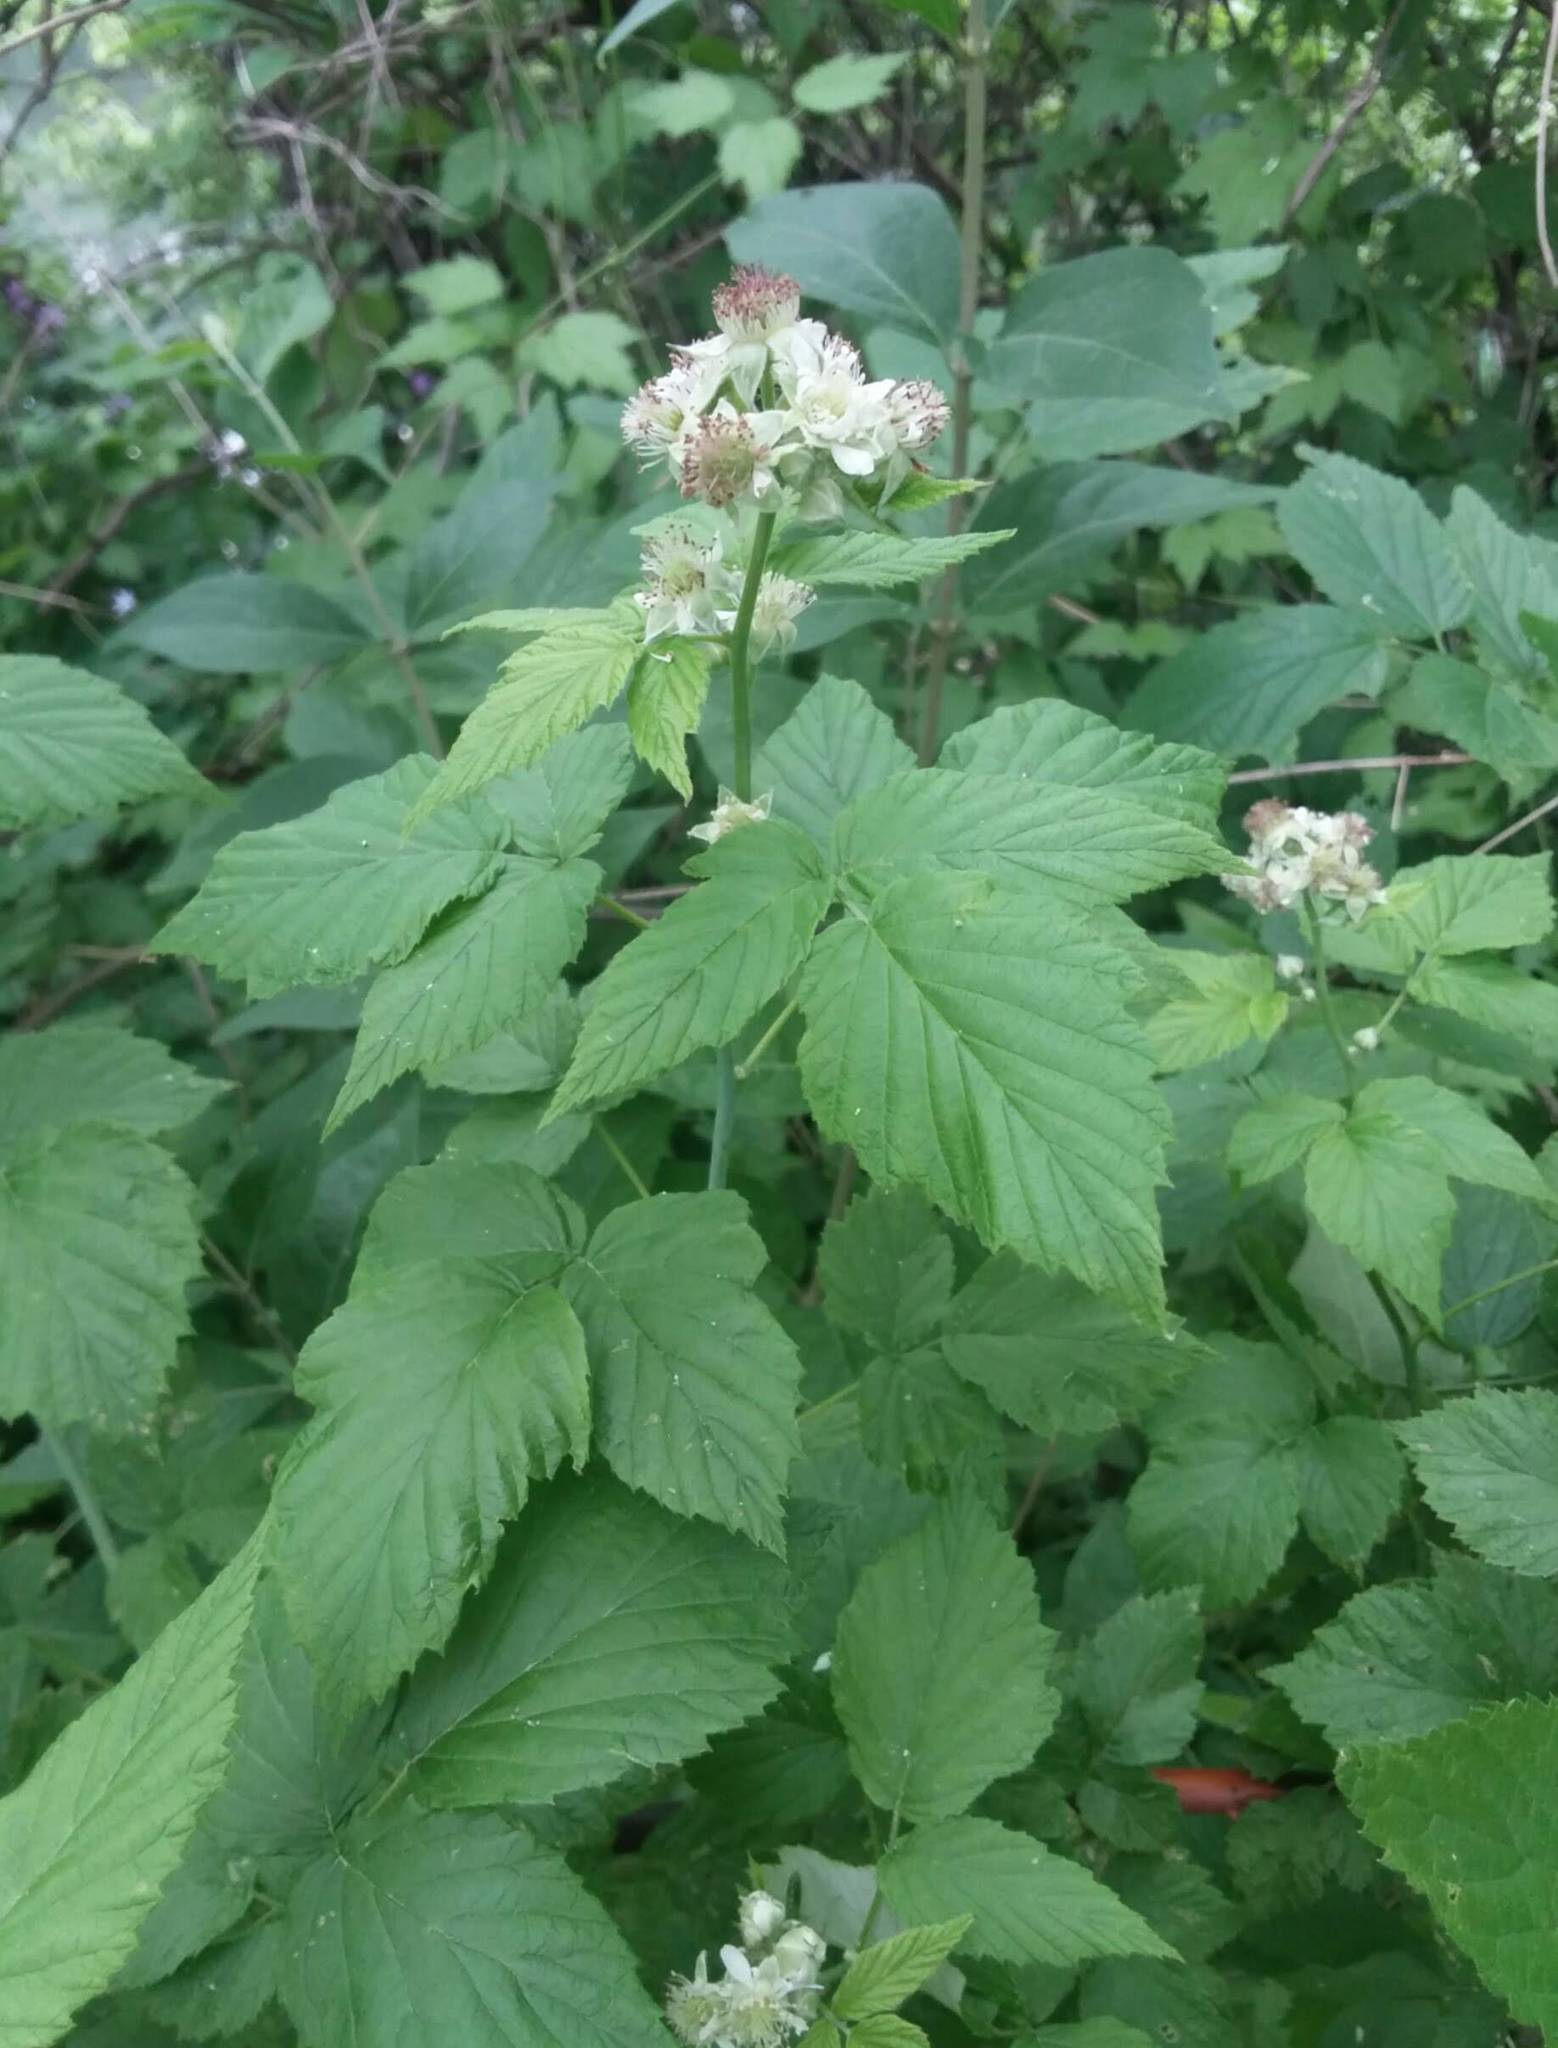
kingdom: Plantae
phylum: Tracheophyta
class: Magnoliopsida
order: Rosales
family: Rosaceae
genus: Rubus
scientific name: Rubus occidentalis
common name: Black raspberry
